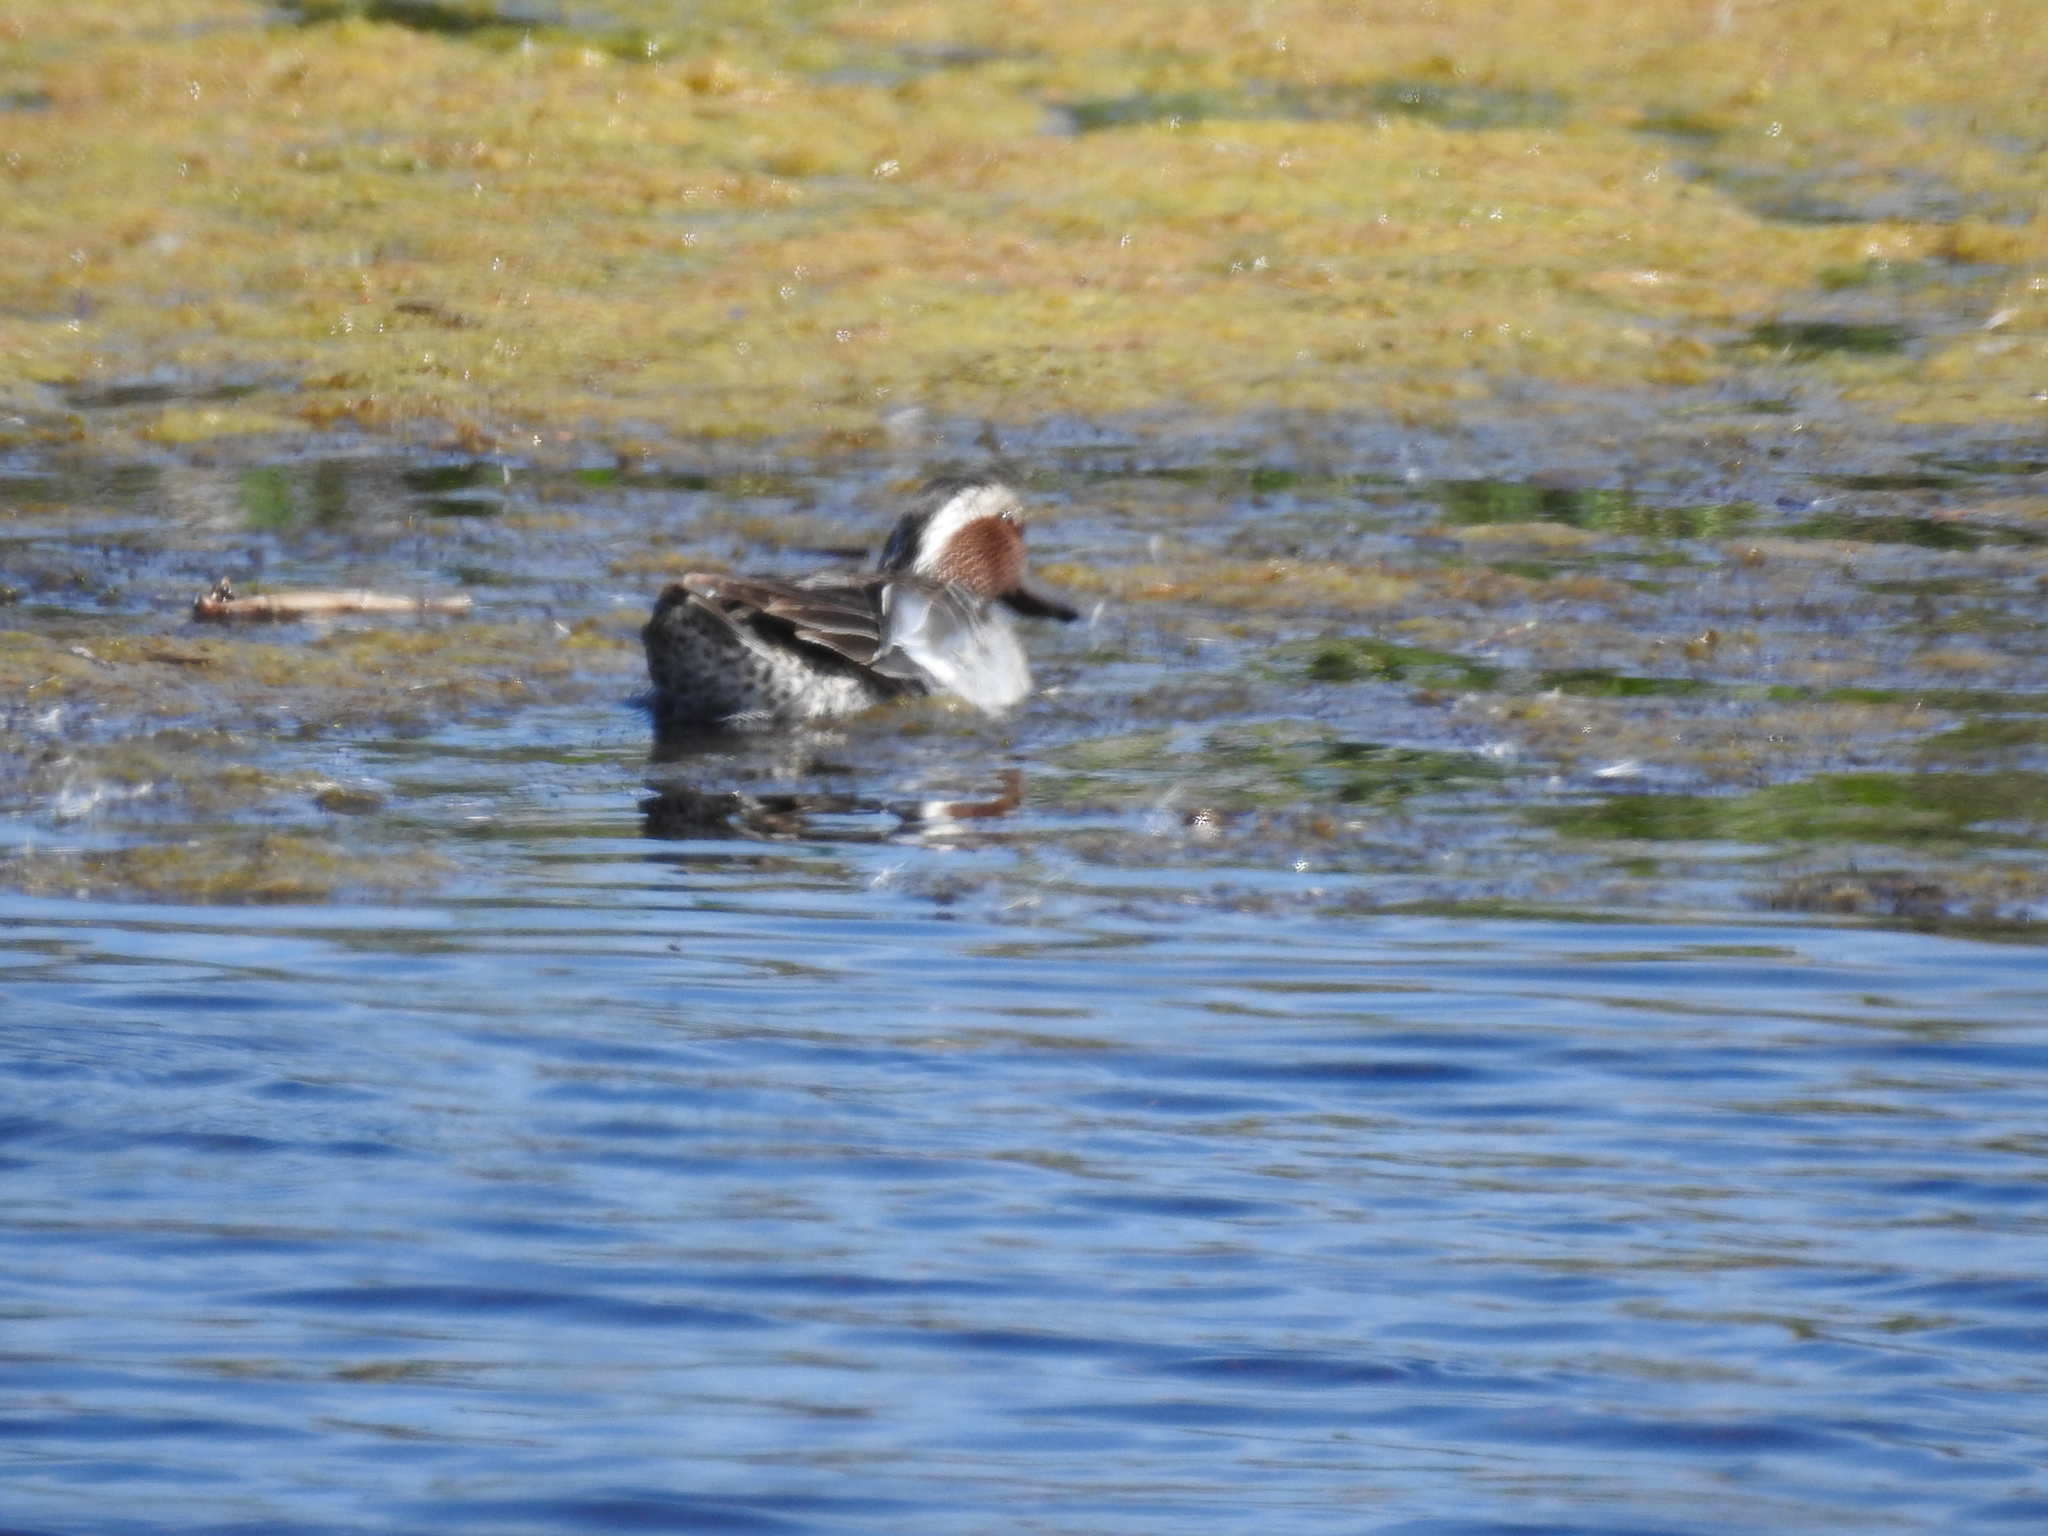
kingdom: Animalia
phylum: Chordata
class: Aves
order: Anseriformes
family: Anatidae
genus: Spatula
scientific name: Spatula querquedula
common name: Garganey
